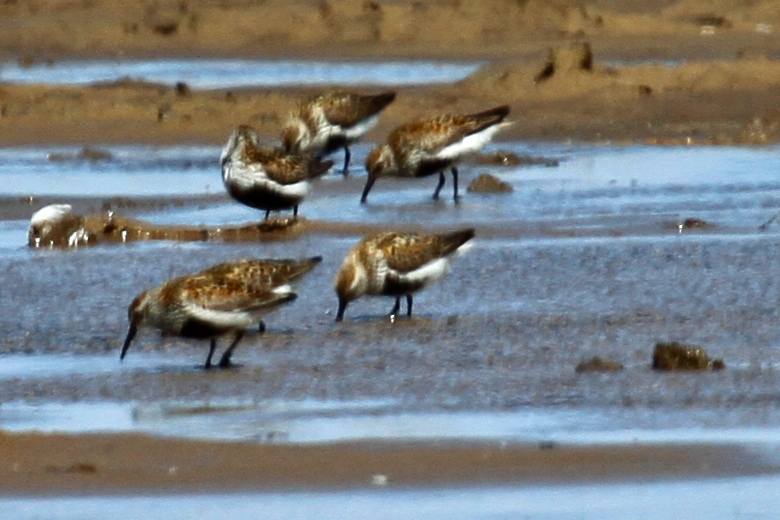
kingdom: Animalia
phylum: Chordata
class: Aves
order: Charadriiformes
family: Scolopacidae
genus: Calidris
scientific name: Calidris alpina
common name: Dunlin
